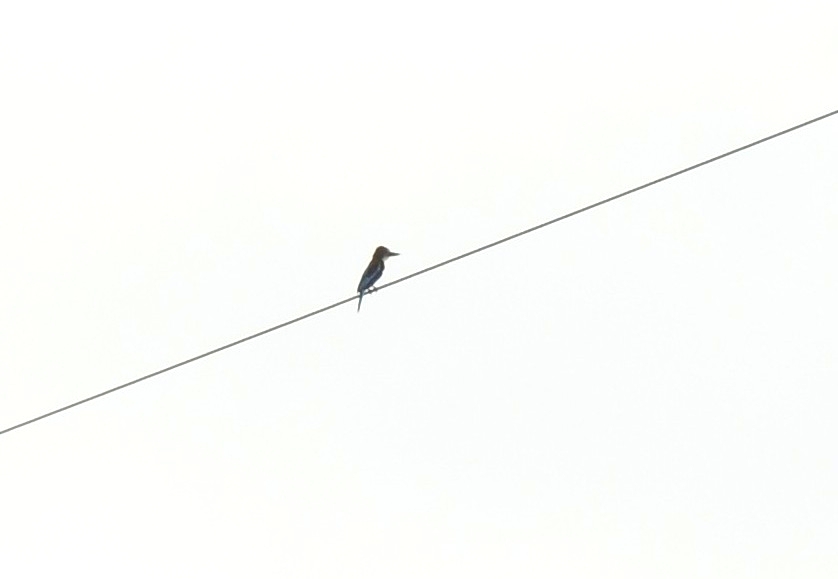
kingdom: Animalia
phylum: Chordata
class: Aves
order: Coraciiformes
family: Alcedinidae
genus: Halcyon
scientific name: Halcyon smyrnensis
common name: White-throated kingfisher
